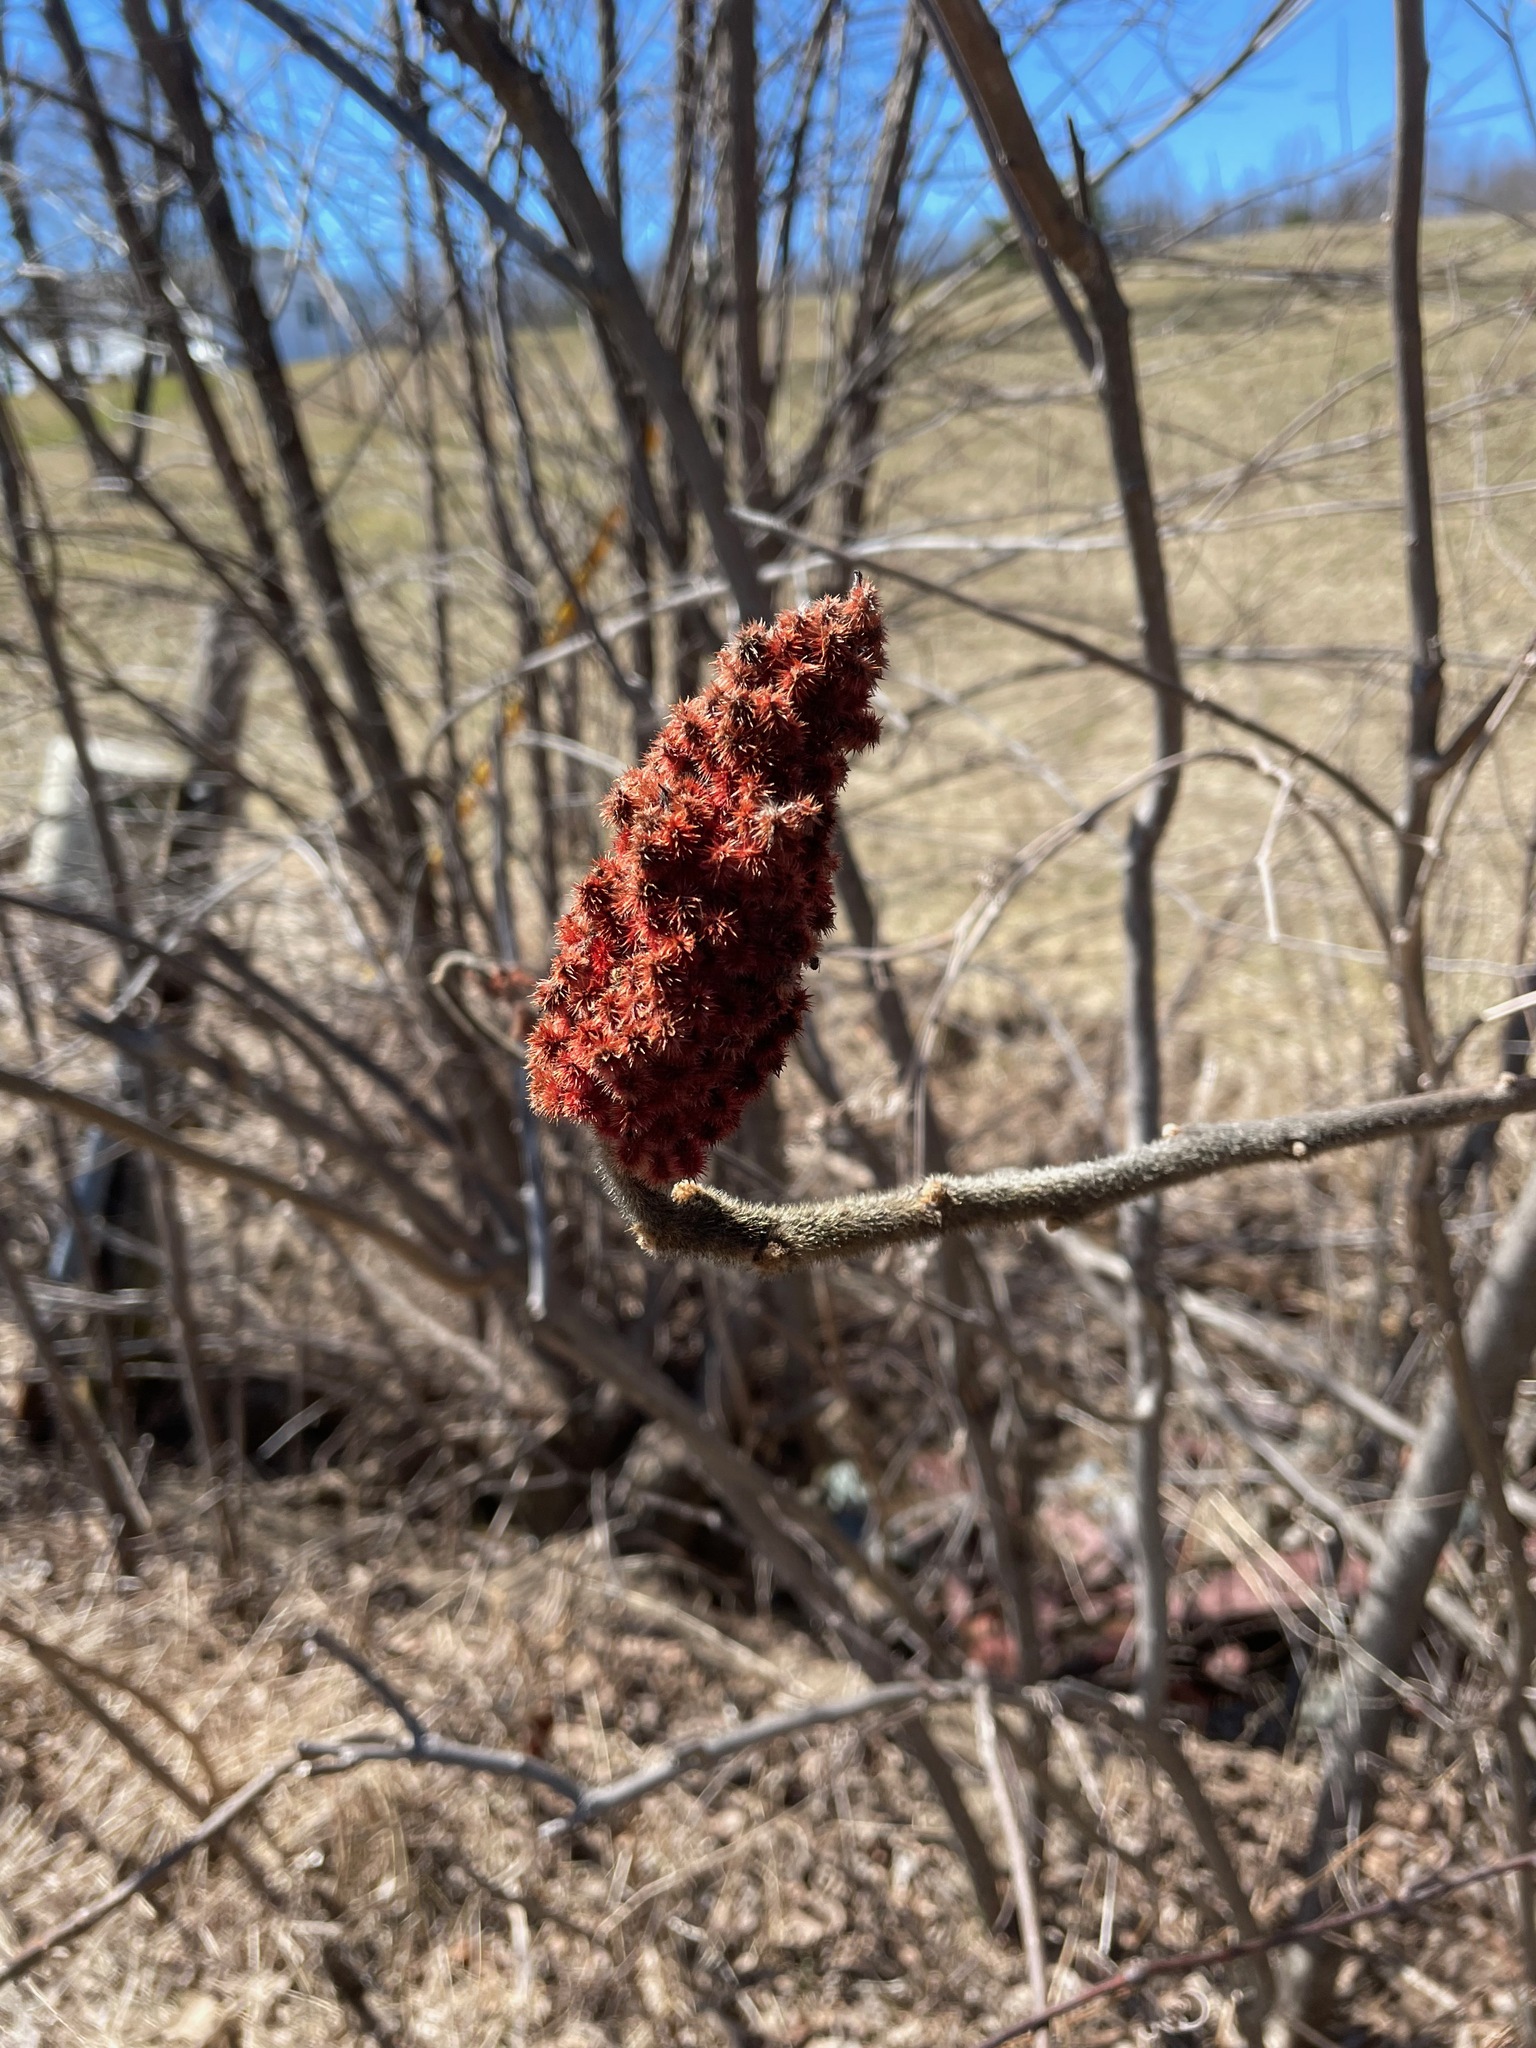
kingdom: Plantae
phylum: Tracheophyta
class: Magnoliopsida
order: Sapindales
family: Anacardiaceae
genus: Rhus
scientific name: Rhus typhina
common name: Staghorn sumac
